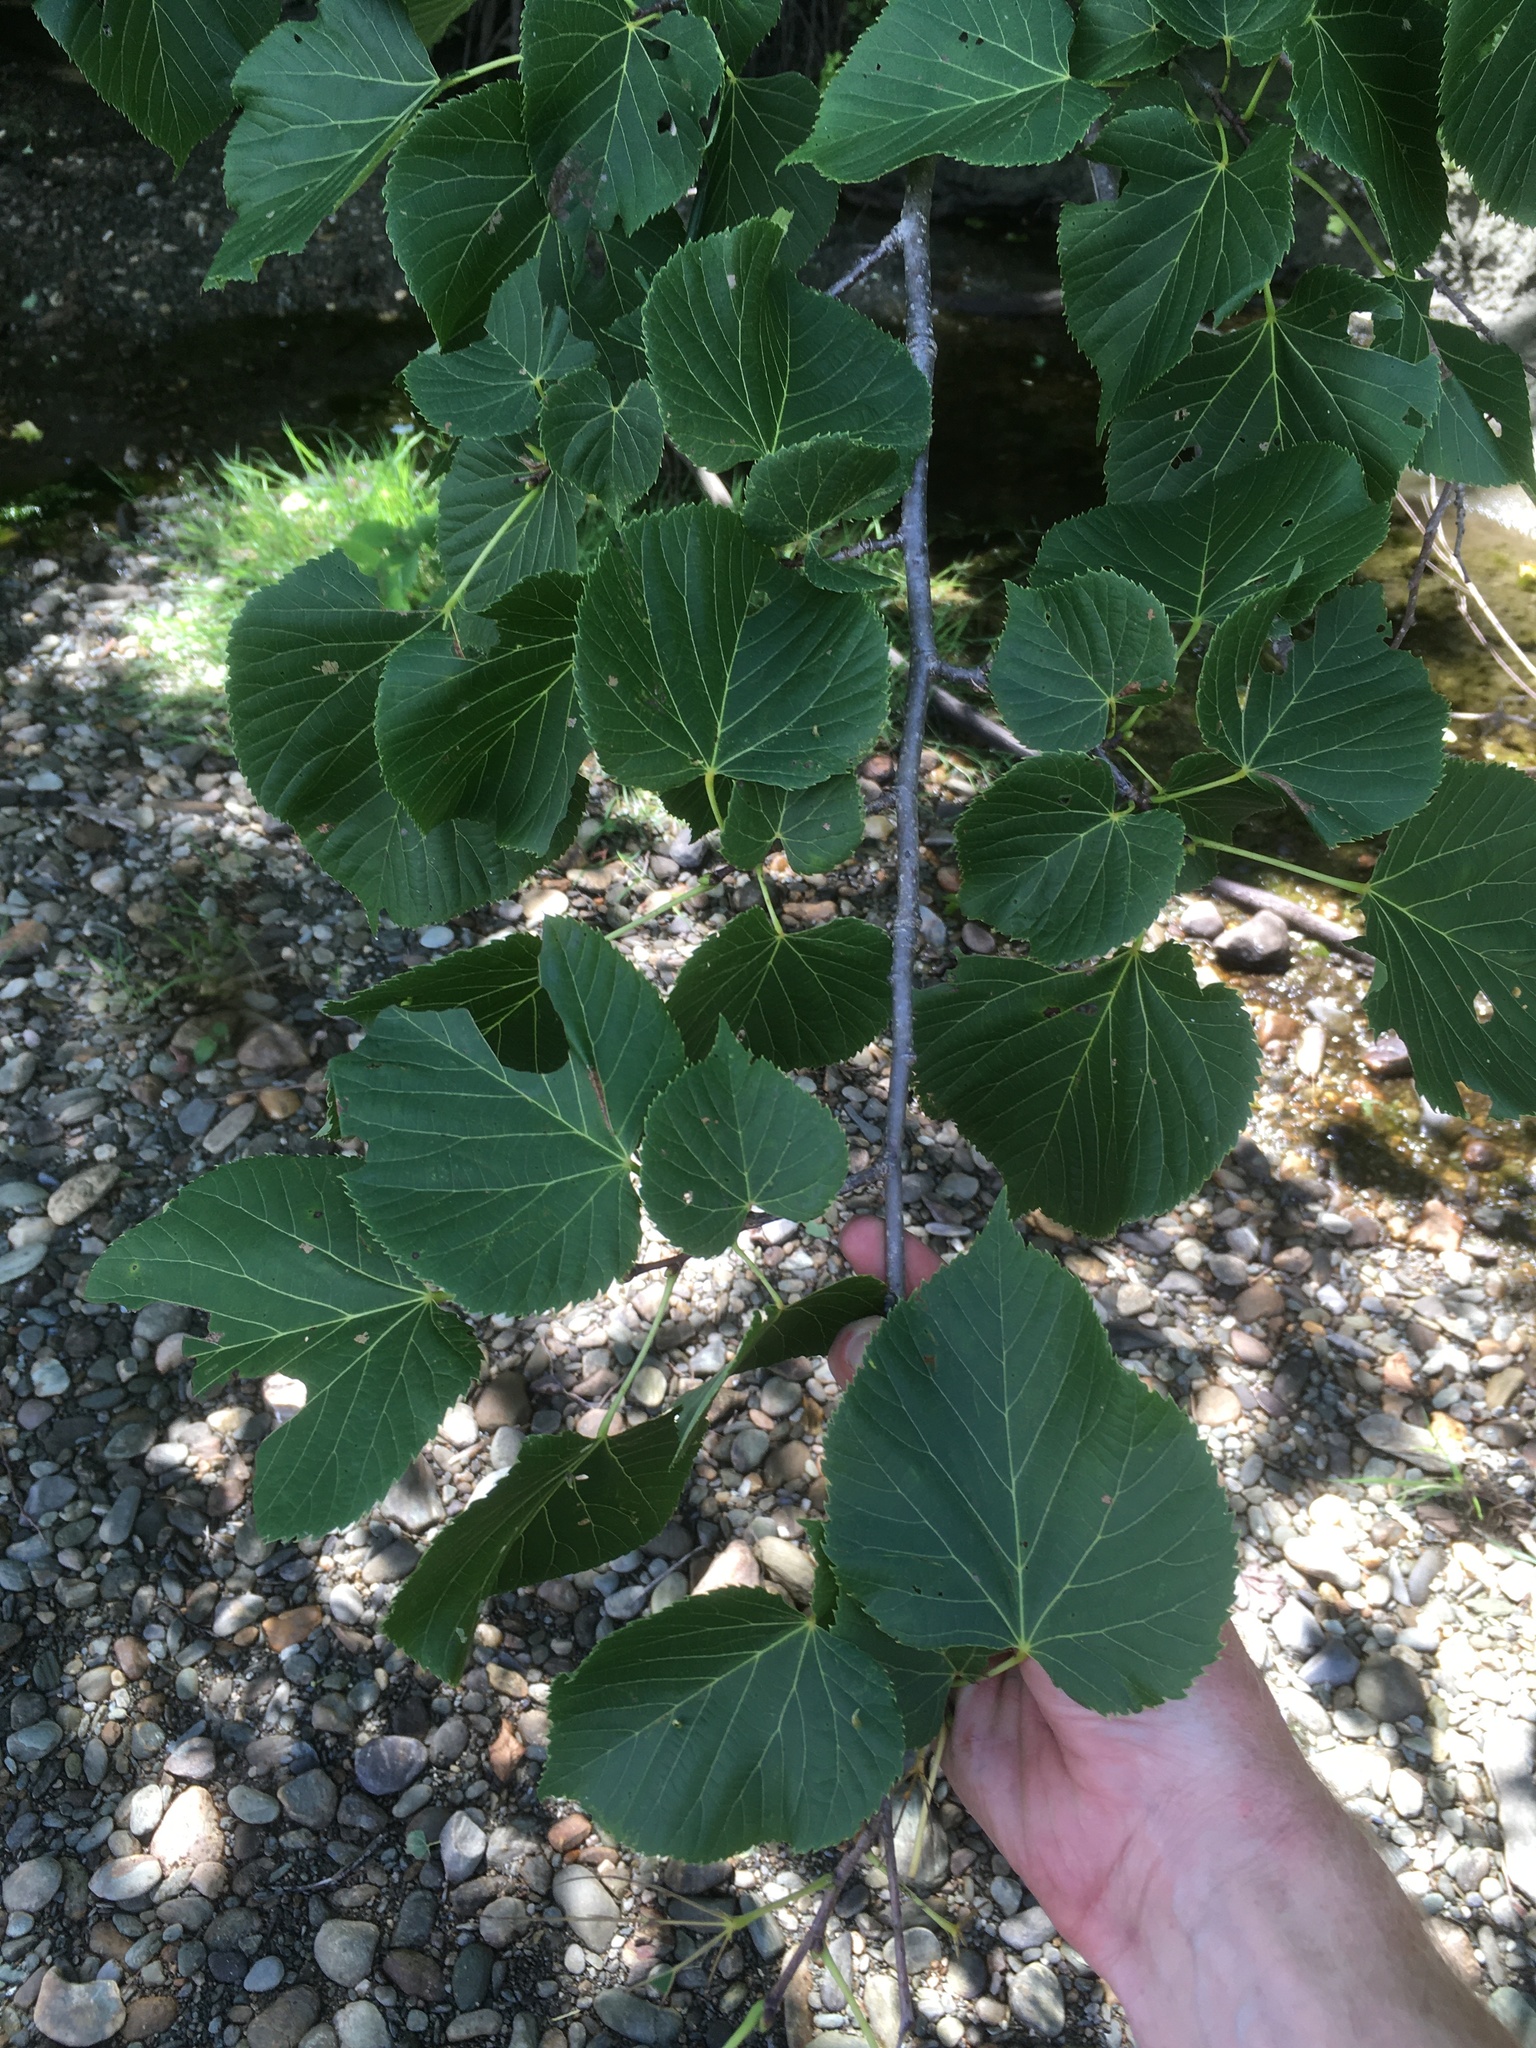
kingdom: Plantae
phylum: Tracheophyta
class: Magnoliopsida
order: Malvales
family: Malvaceae
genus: Tilia
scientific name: Tilia americana
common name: Basswood
